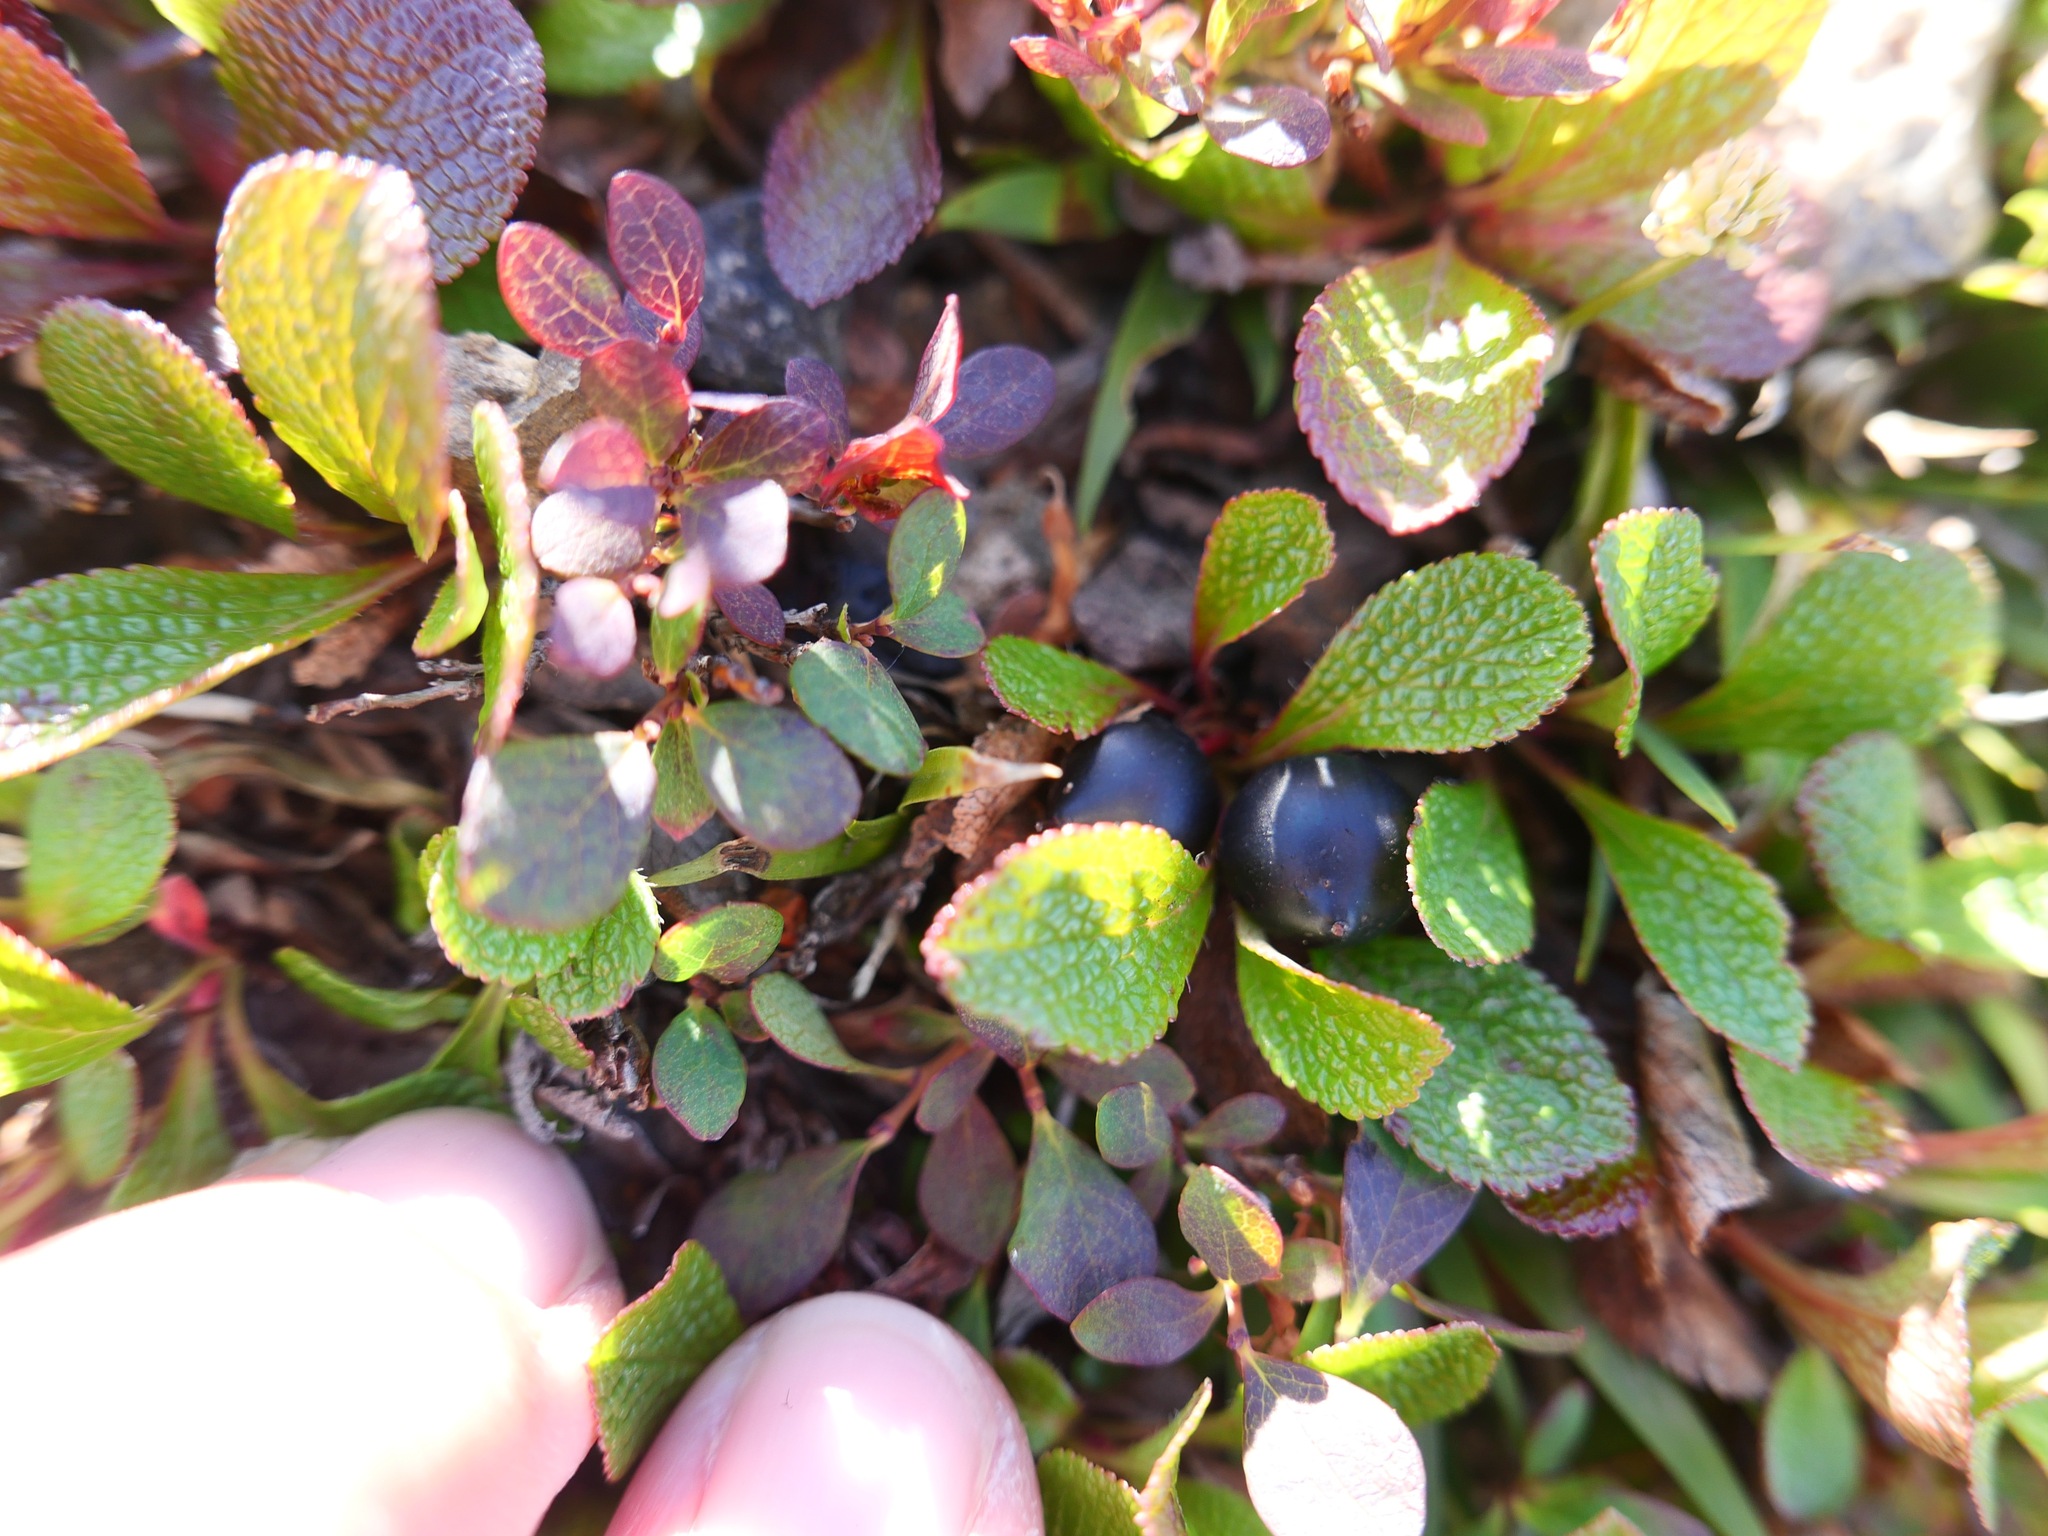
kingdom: Plantae
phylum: Tracheophyta
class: Magnoliopsida
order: Ericales
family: Ericaceae
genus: Arctostaphylos
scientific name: Arctostaphylos alpinus
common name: Alpine bearberry
